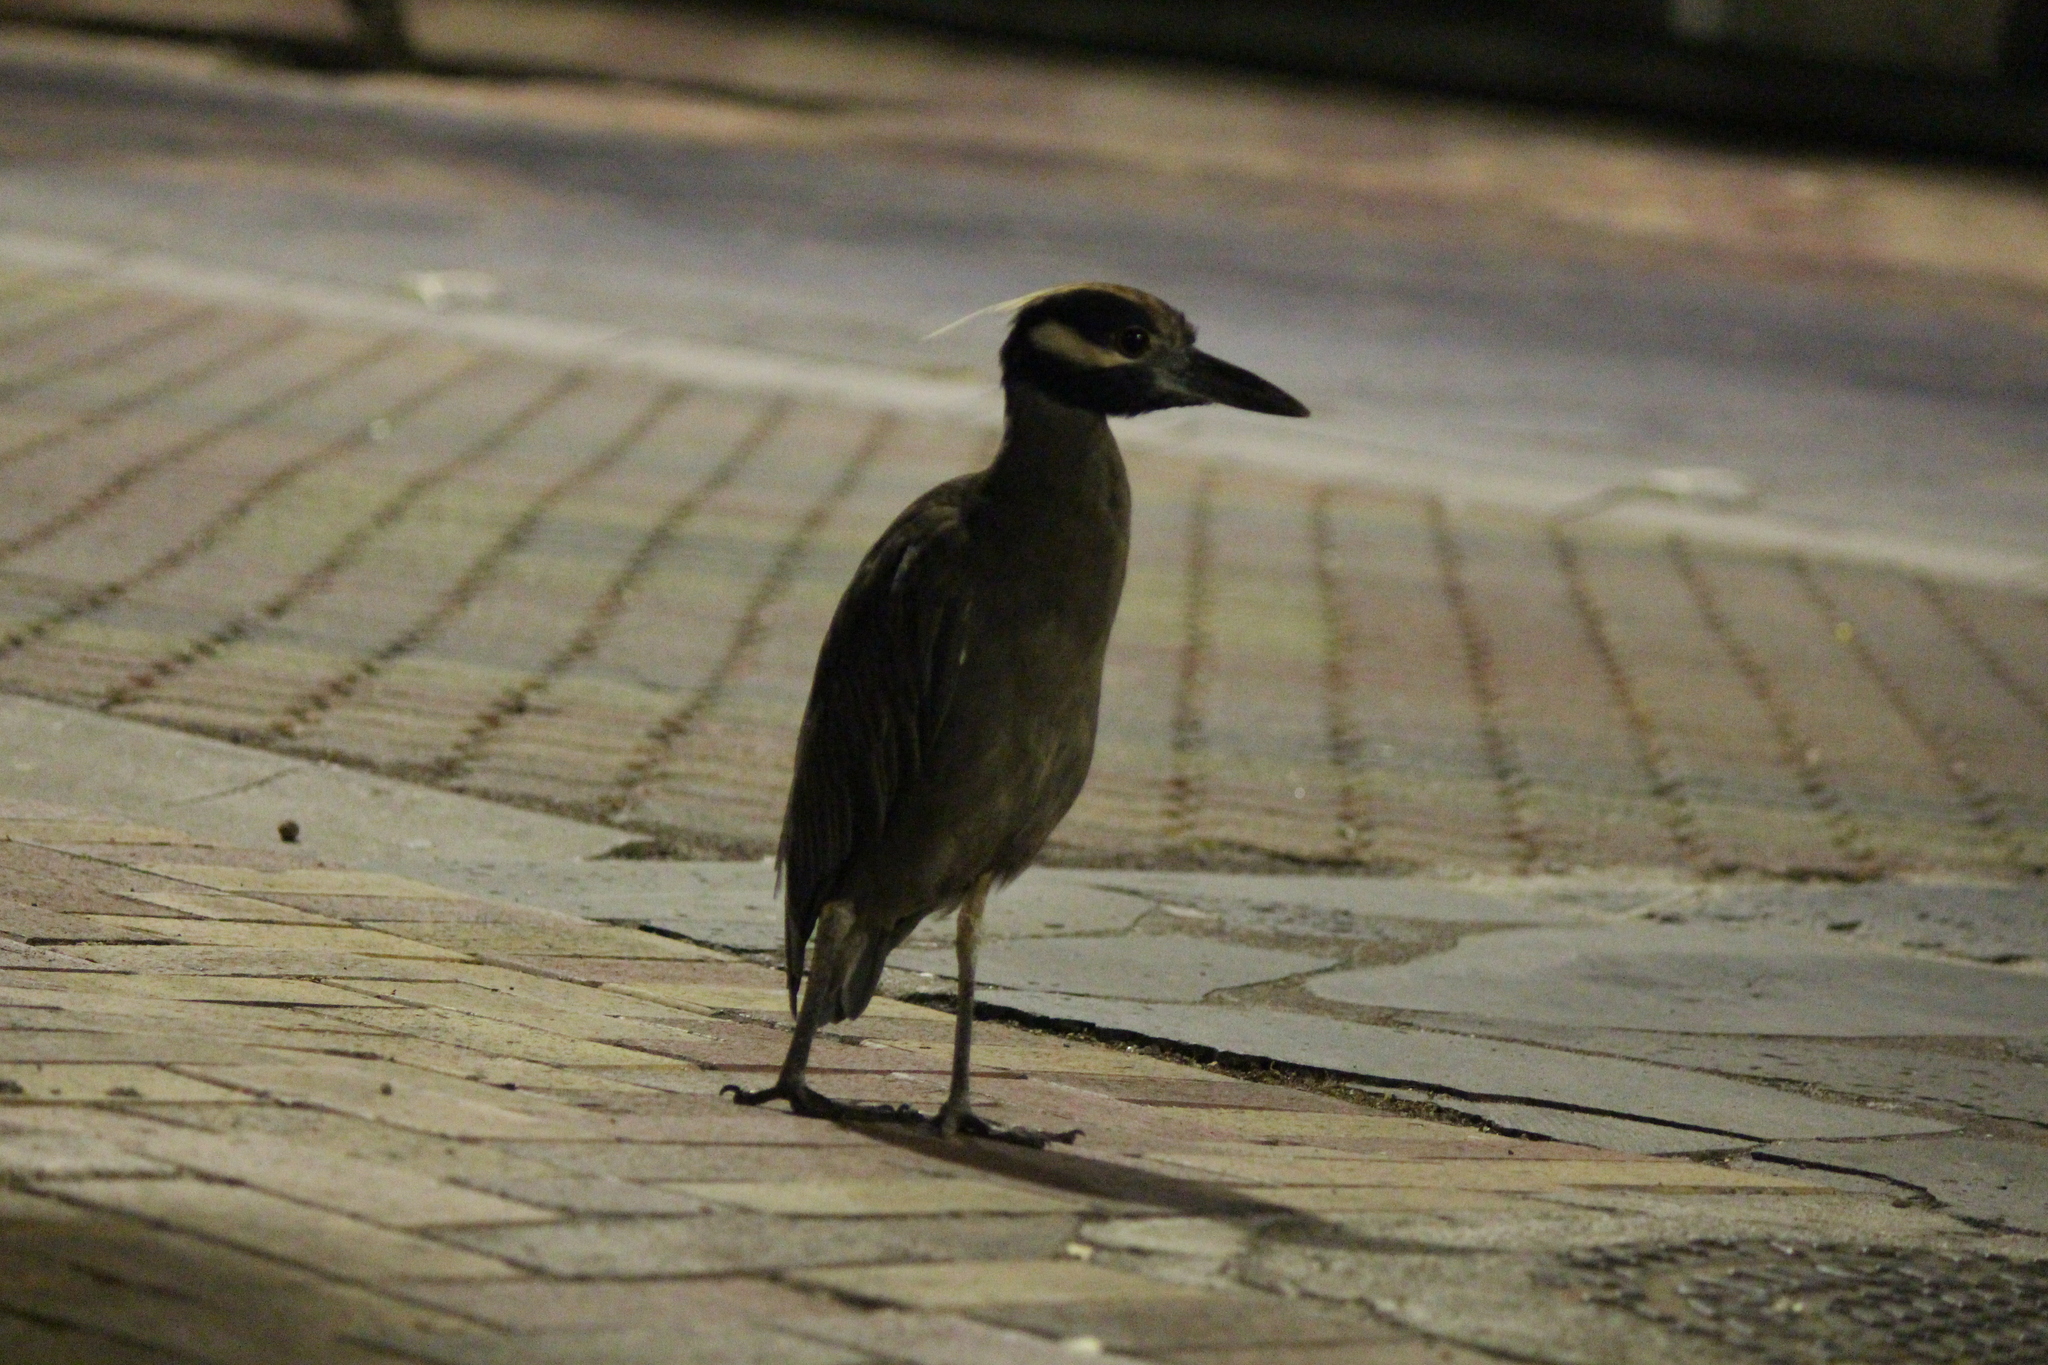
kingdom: Animalia
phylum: Chordata
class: Aves
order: Pelecaniformes
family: Ardeidae
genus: Nyctanassa
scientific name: Nyctanassa violacea
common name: Yellow-crowned night heron
